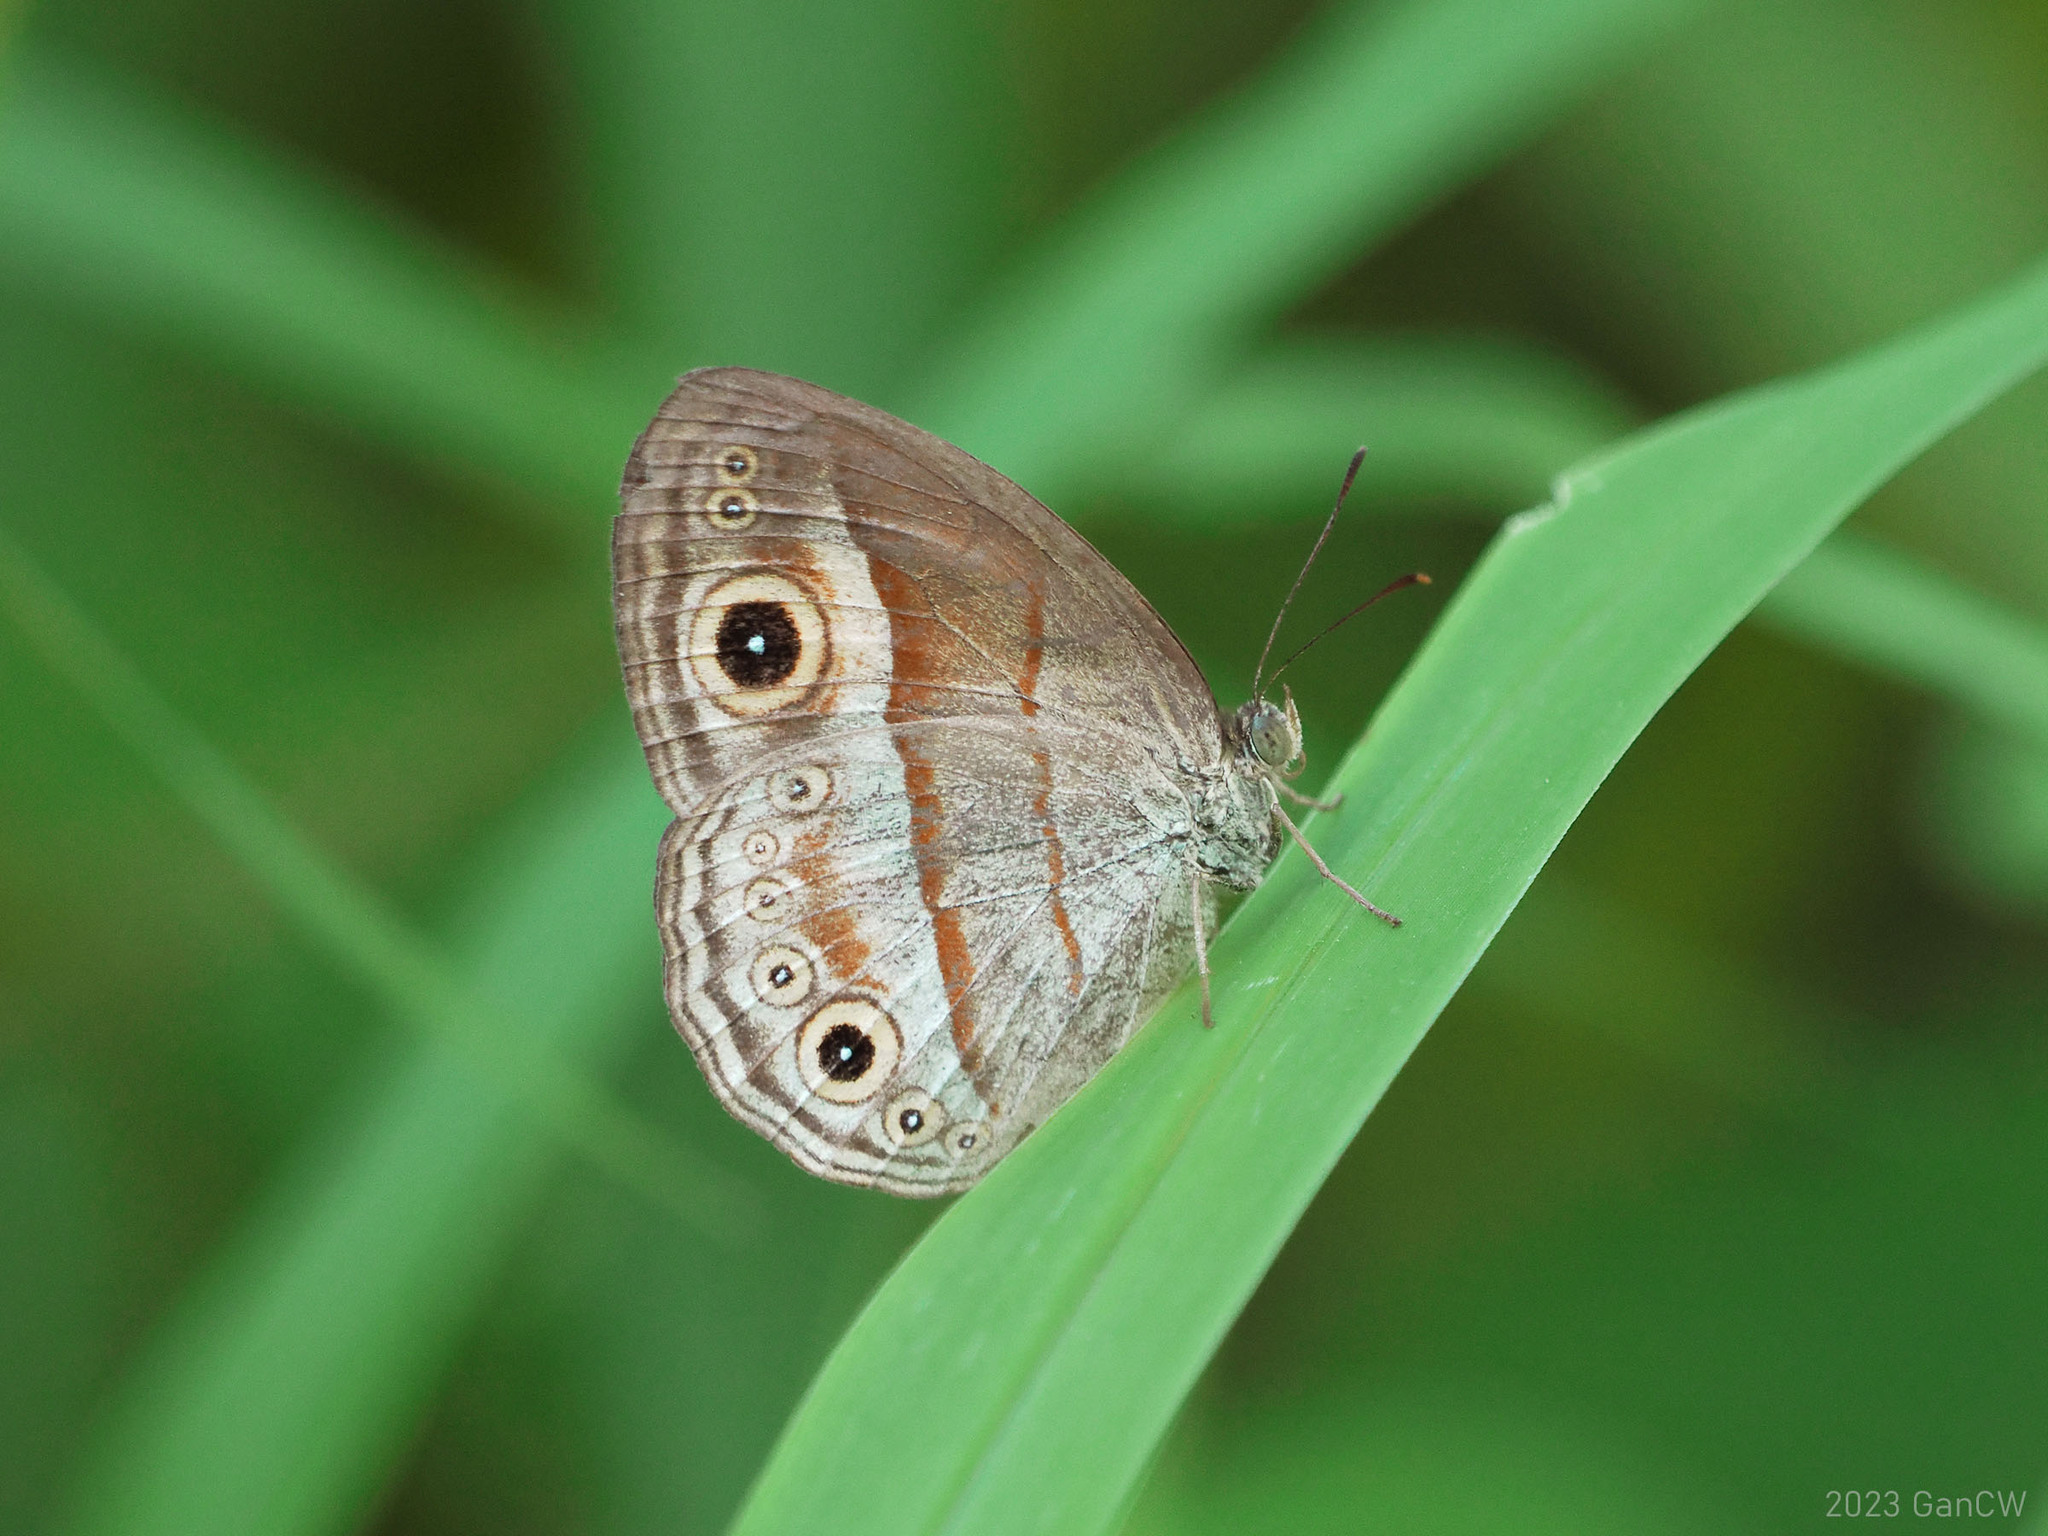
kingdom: Animalia
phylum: Arthropoda
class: Insecta
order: Lepidoptera
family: Nymphalidae
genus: Mycalesis
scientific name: Mycalesis ita
